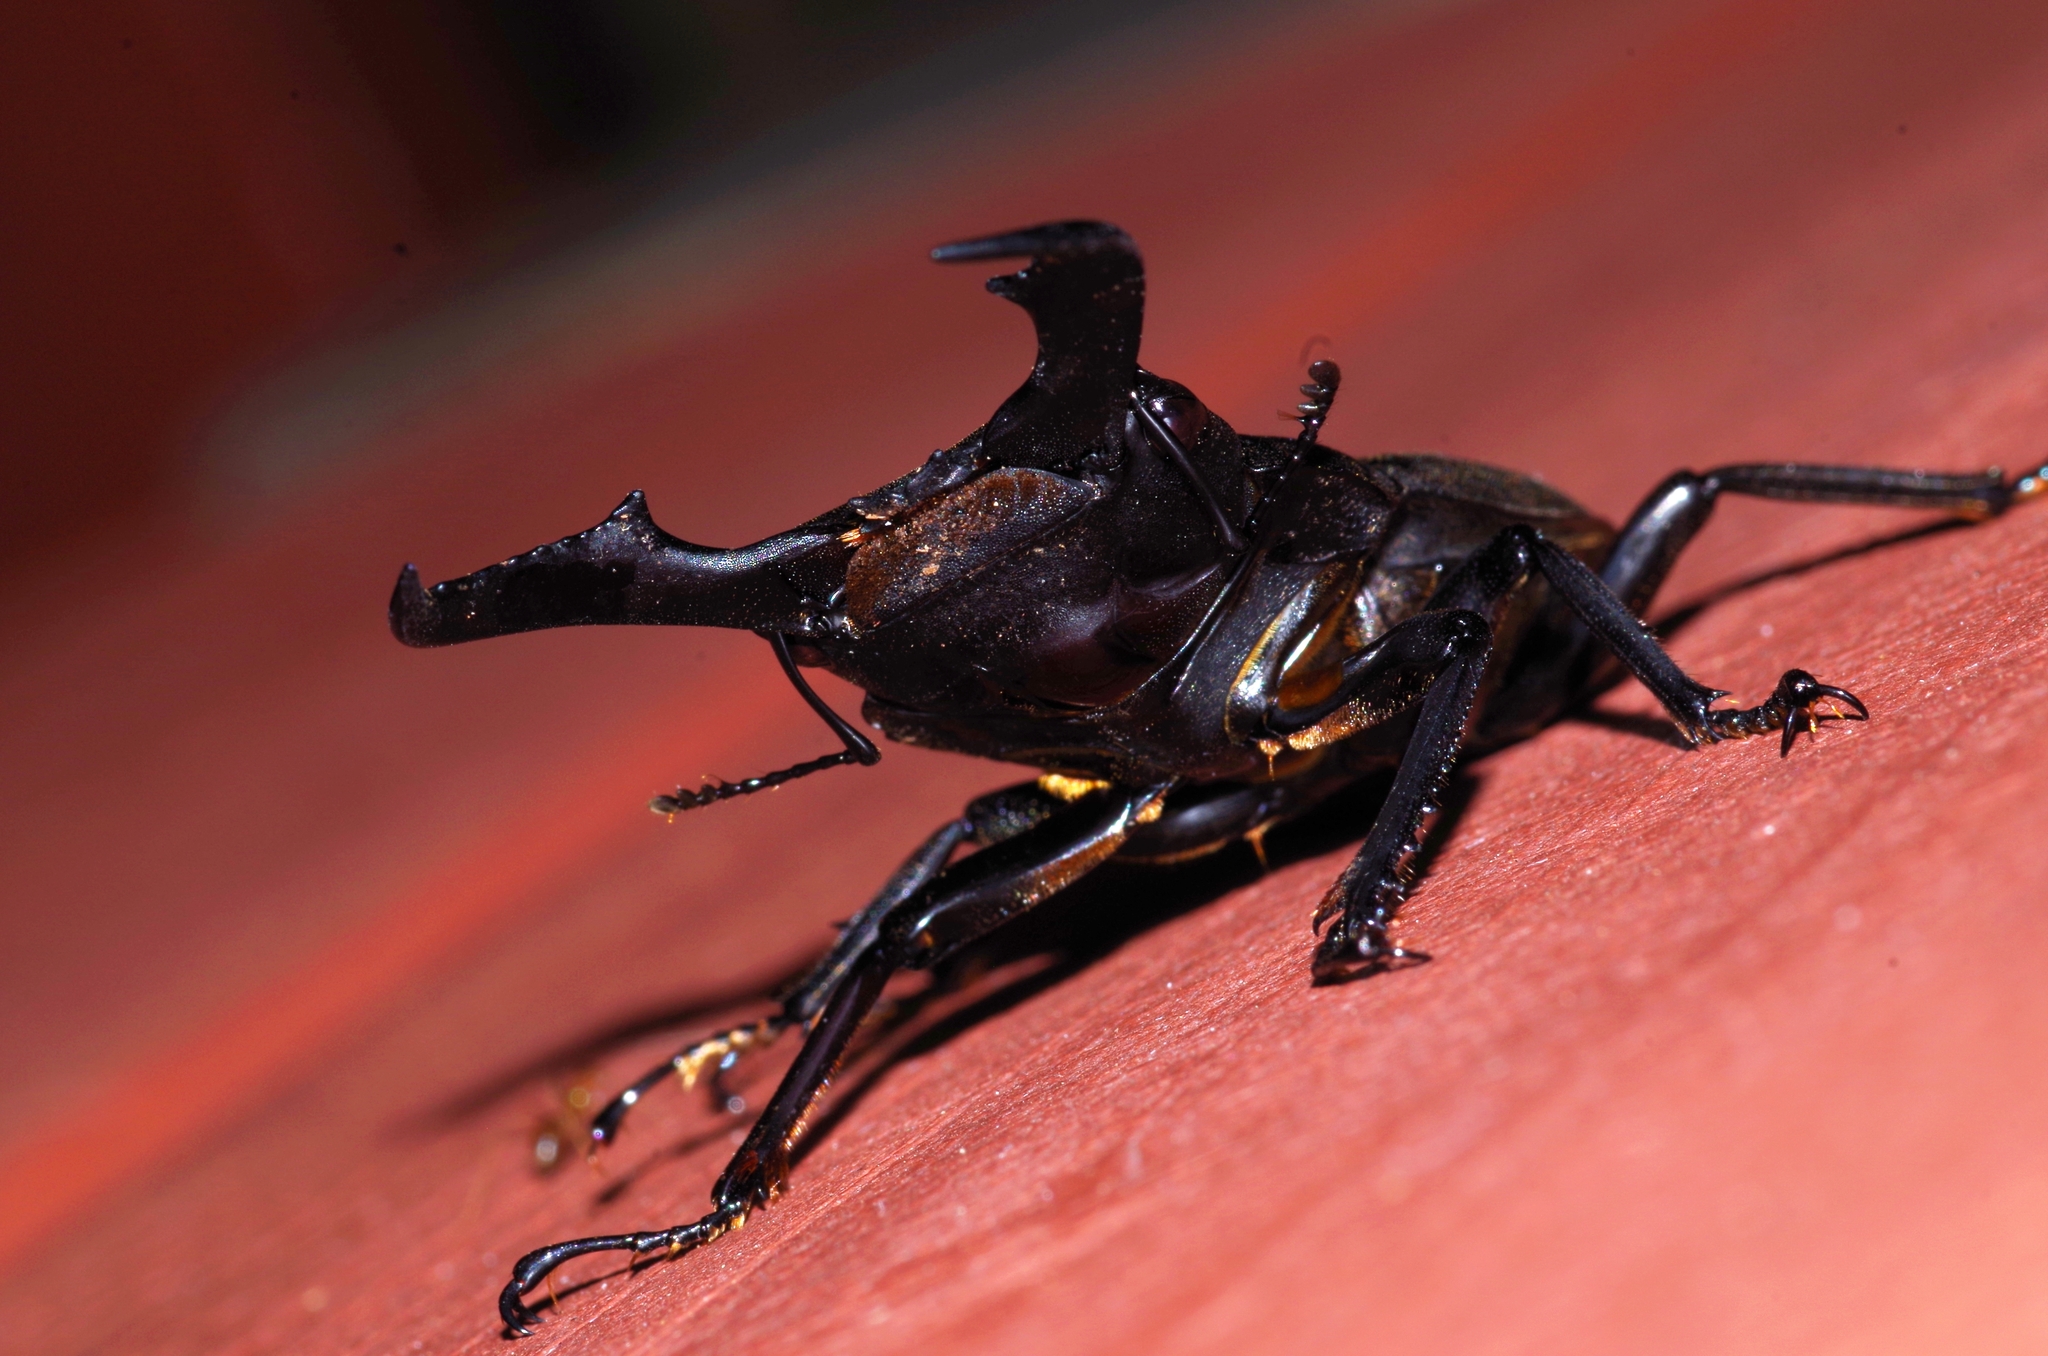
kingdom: Animalia
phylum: Arthropoda
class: Insecta
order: Coleoptera
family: Lucanidae
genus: Serrognathus
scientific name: Serrognathus titanus
